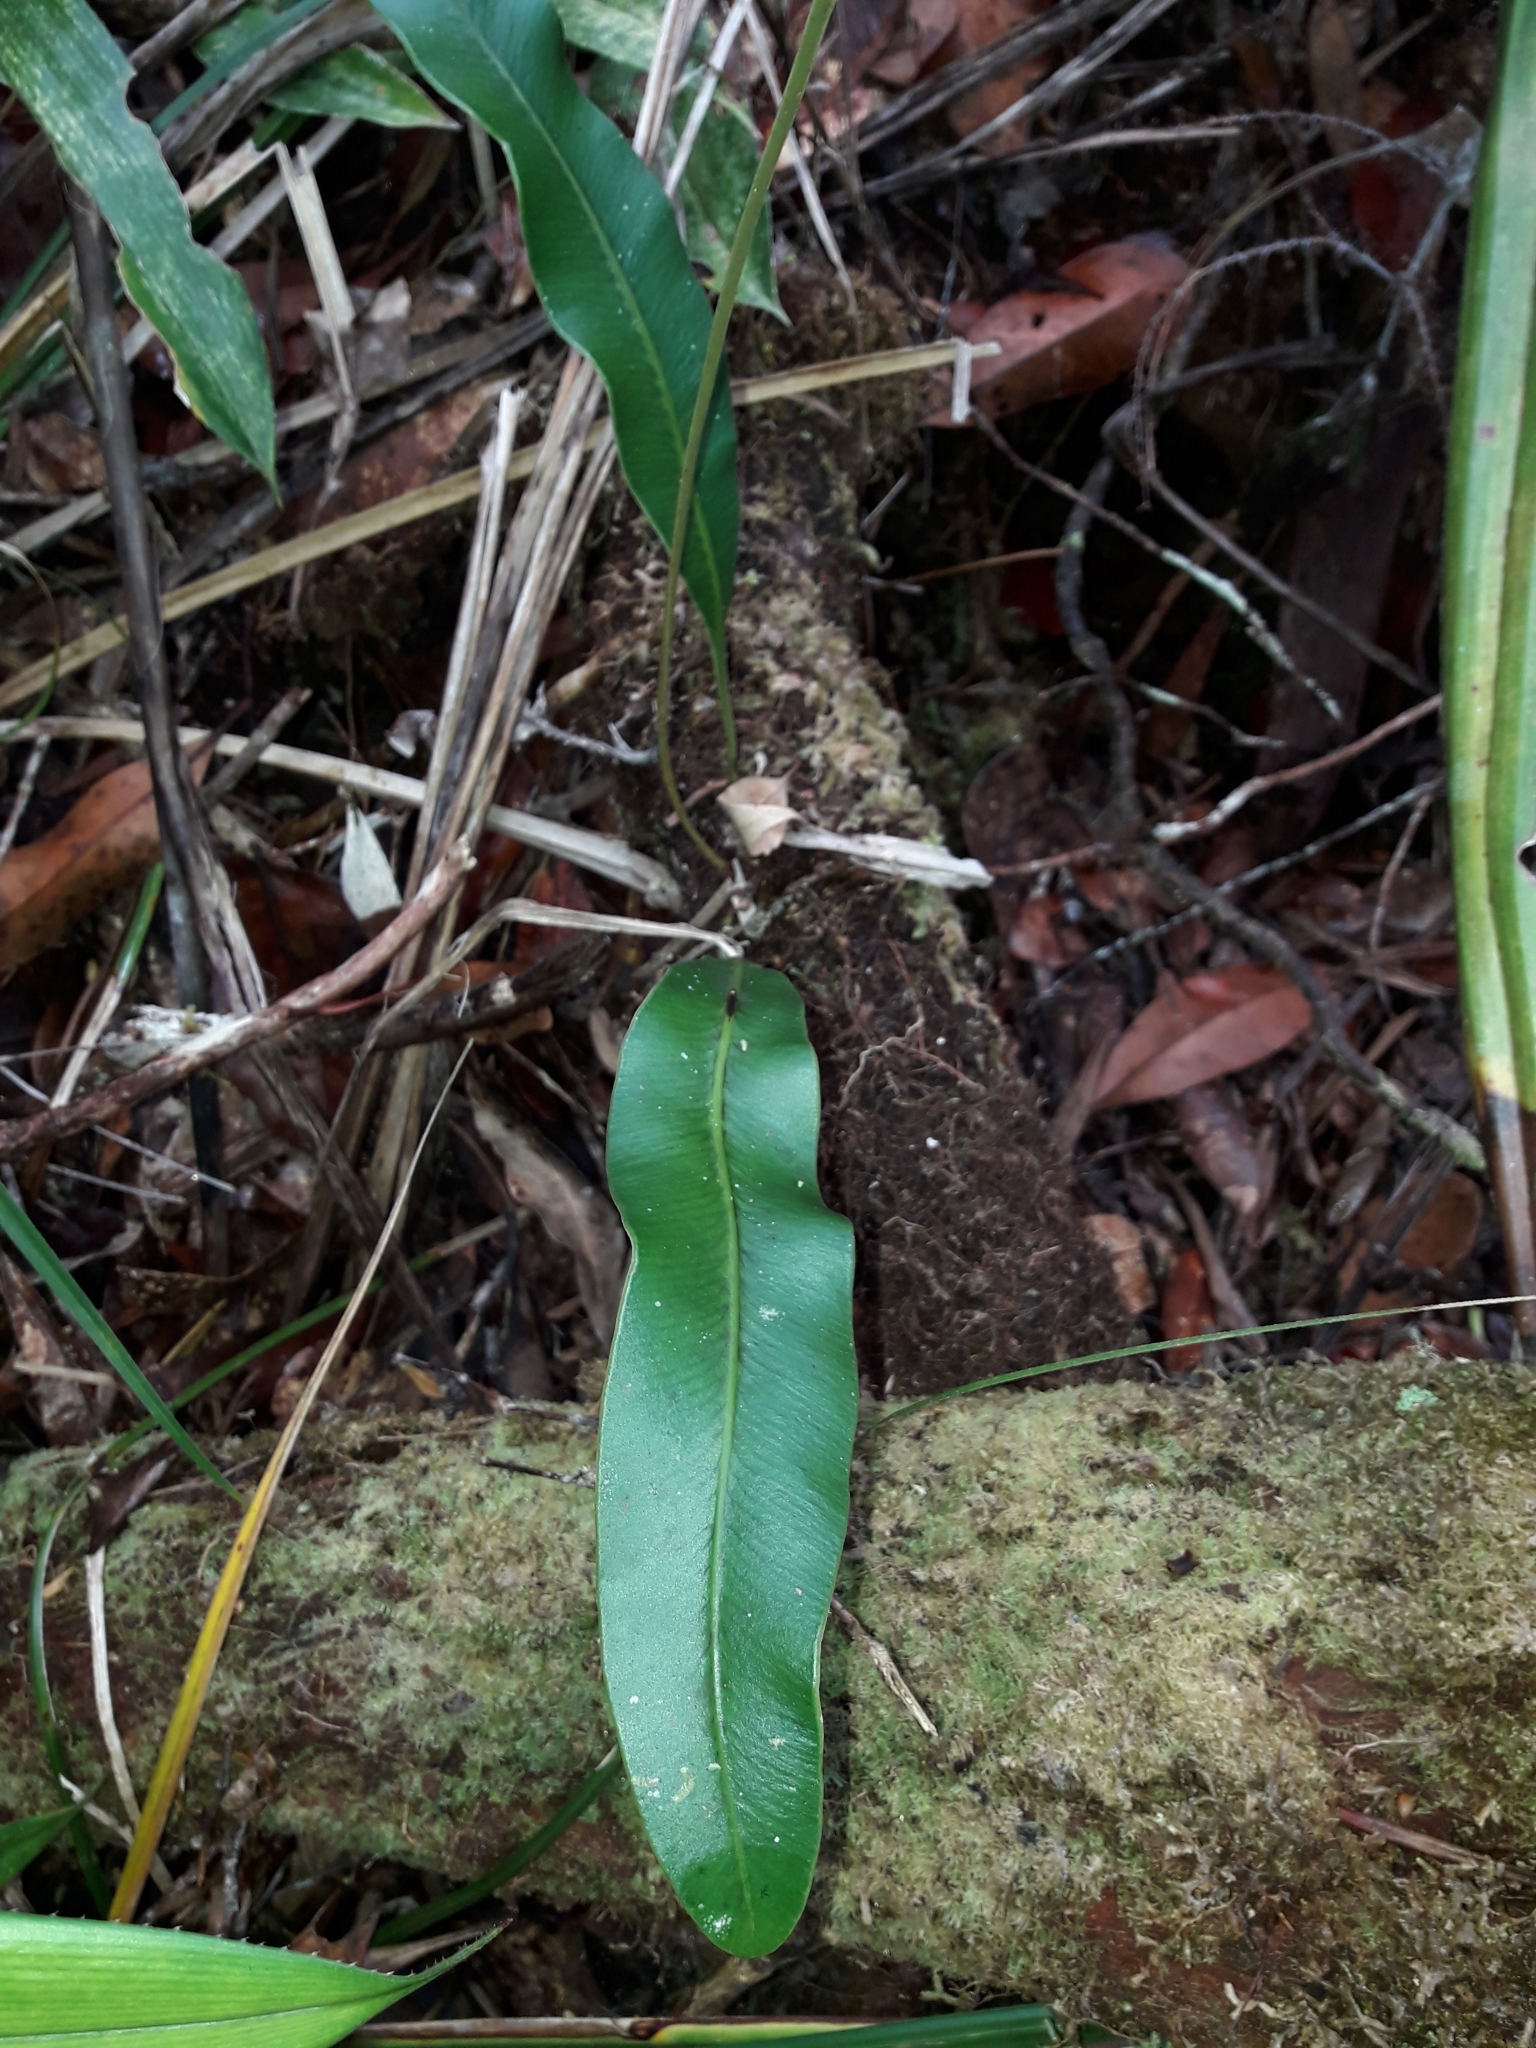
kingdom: Plantae
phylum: Tracheophyta
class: Polypodiopsida
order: Polypodiales
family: Dryopteridaceae
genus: Elaphoglossum
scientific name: Elaphoglossum vieillardii
